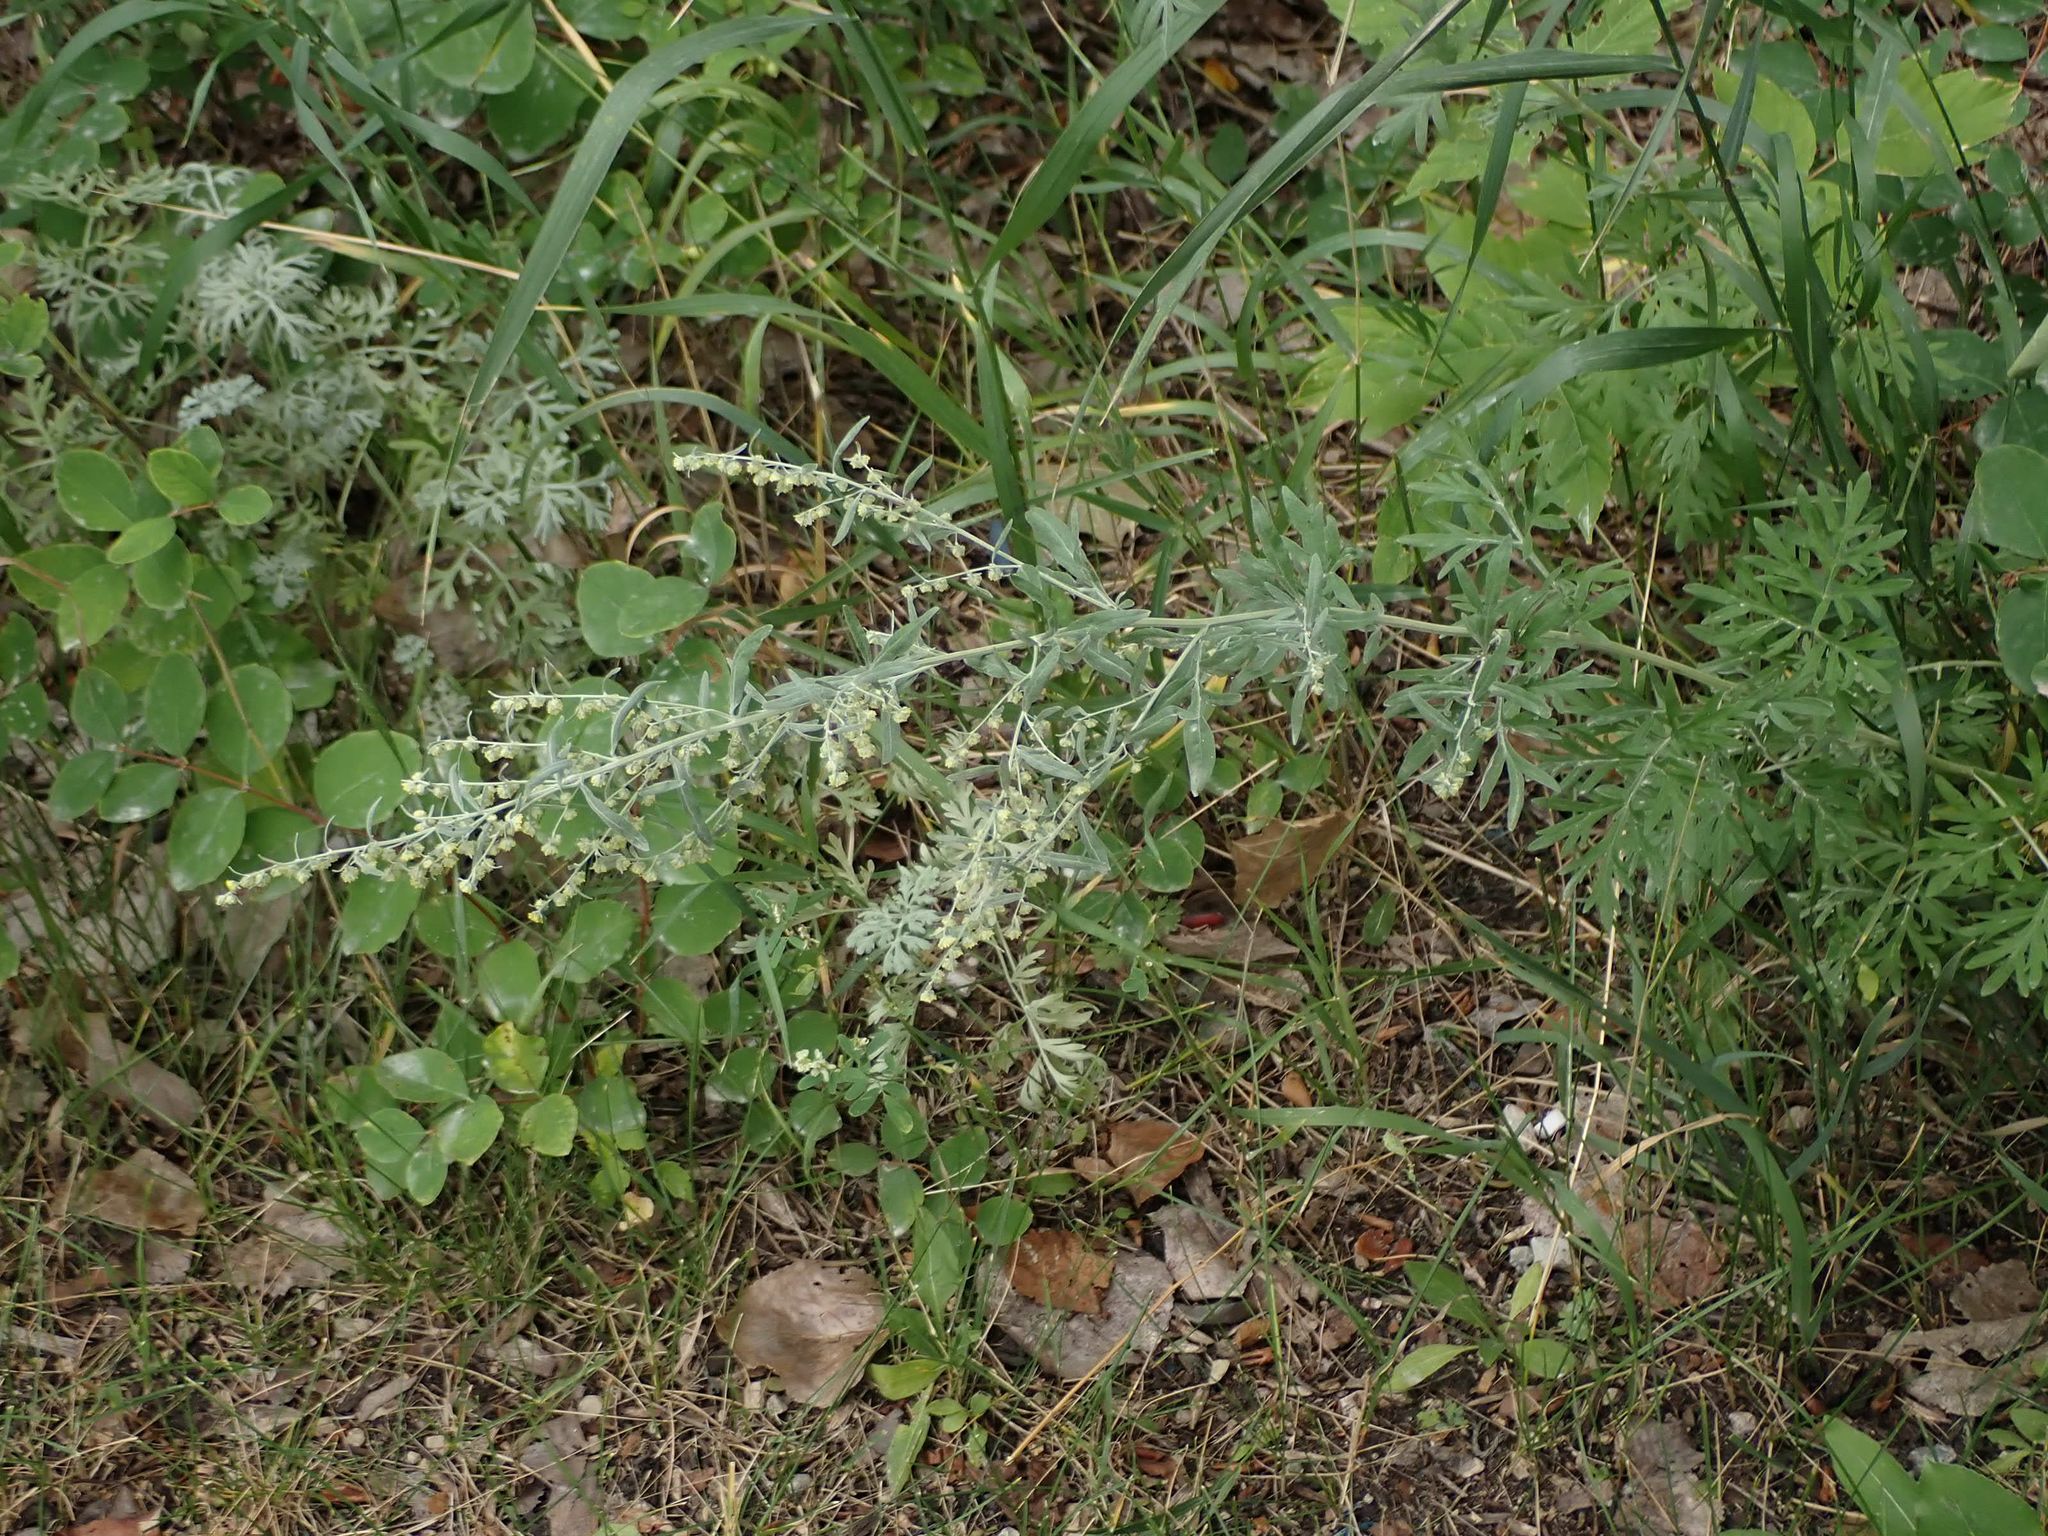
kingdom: Plantae
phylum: Tracheophyta
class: Magnoliopsida
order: Asterales
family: Asteraceae
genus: Artemisia
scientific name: Artemisia absinthium
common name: Wormwood
